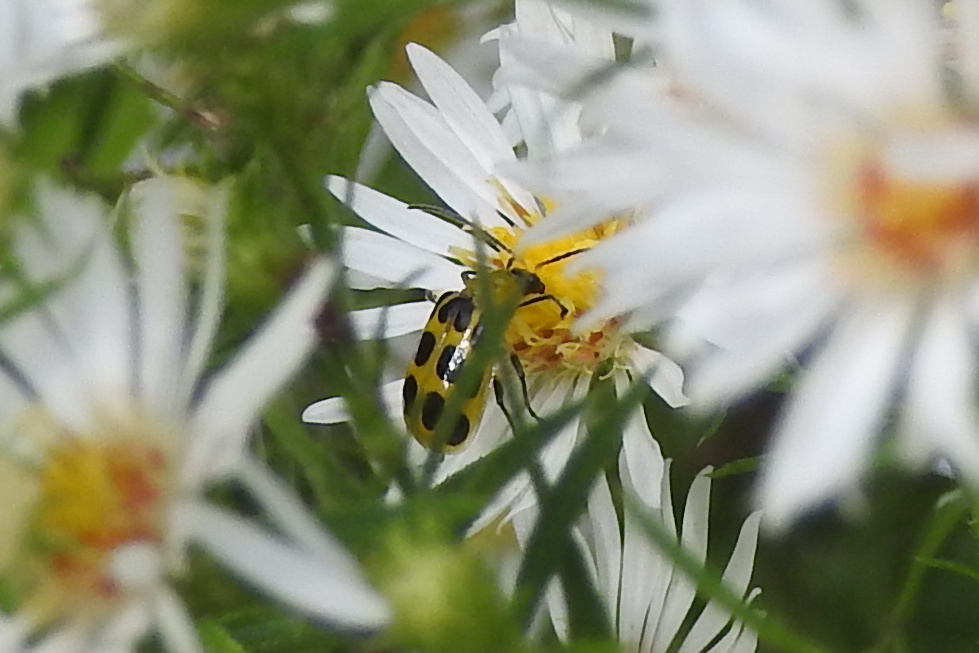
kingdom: Animalia
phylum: Arthropoda
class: Insecta
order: Coleoptera
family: Chrysomelidae
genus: Diabrotica
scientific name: Diabrotica undecimpunctata
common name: Spotted cucumber beetle
